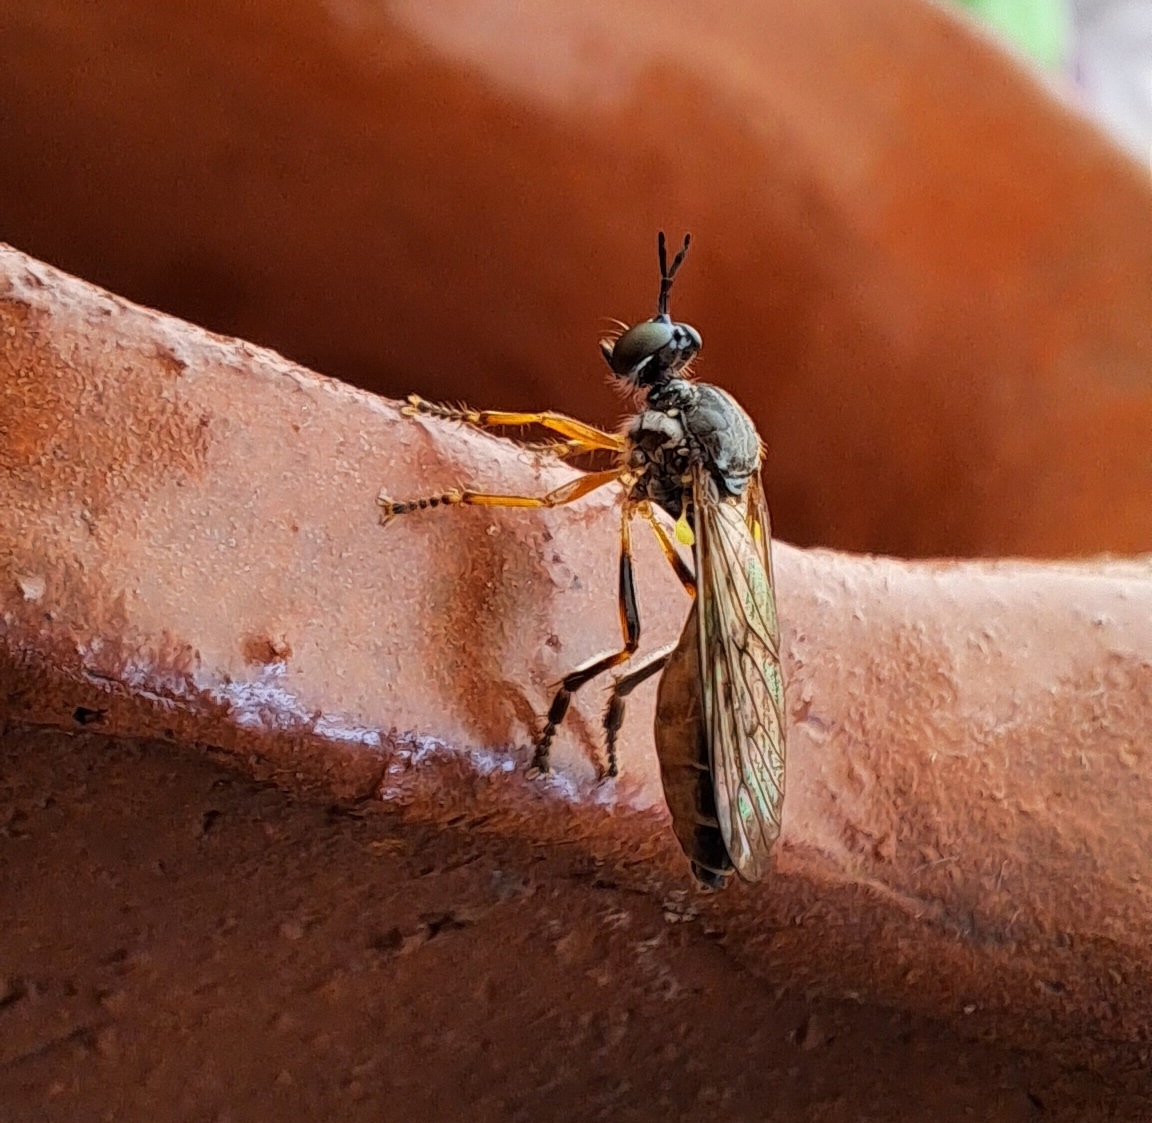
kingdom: Animalia
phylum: Arthropoda
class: Insecta
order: Diptera
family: Asilidae
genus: Dioctria
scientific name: Dioctria hyalipennis
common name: Stripe-legged robberfly
